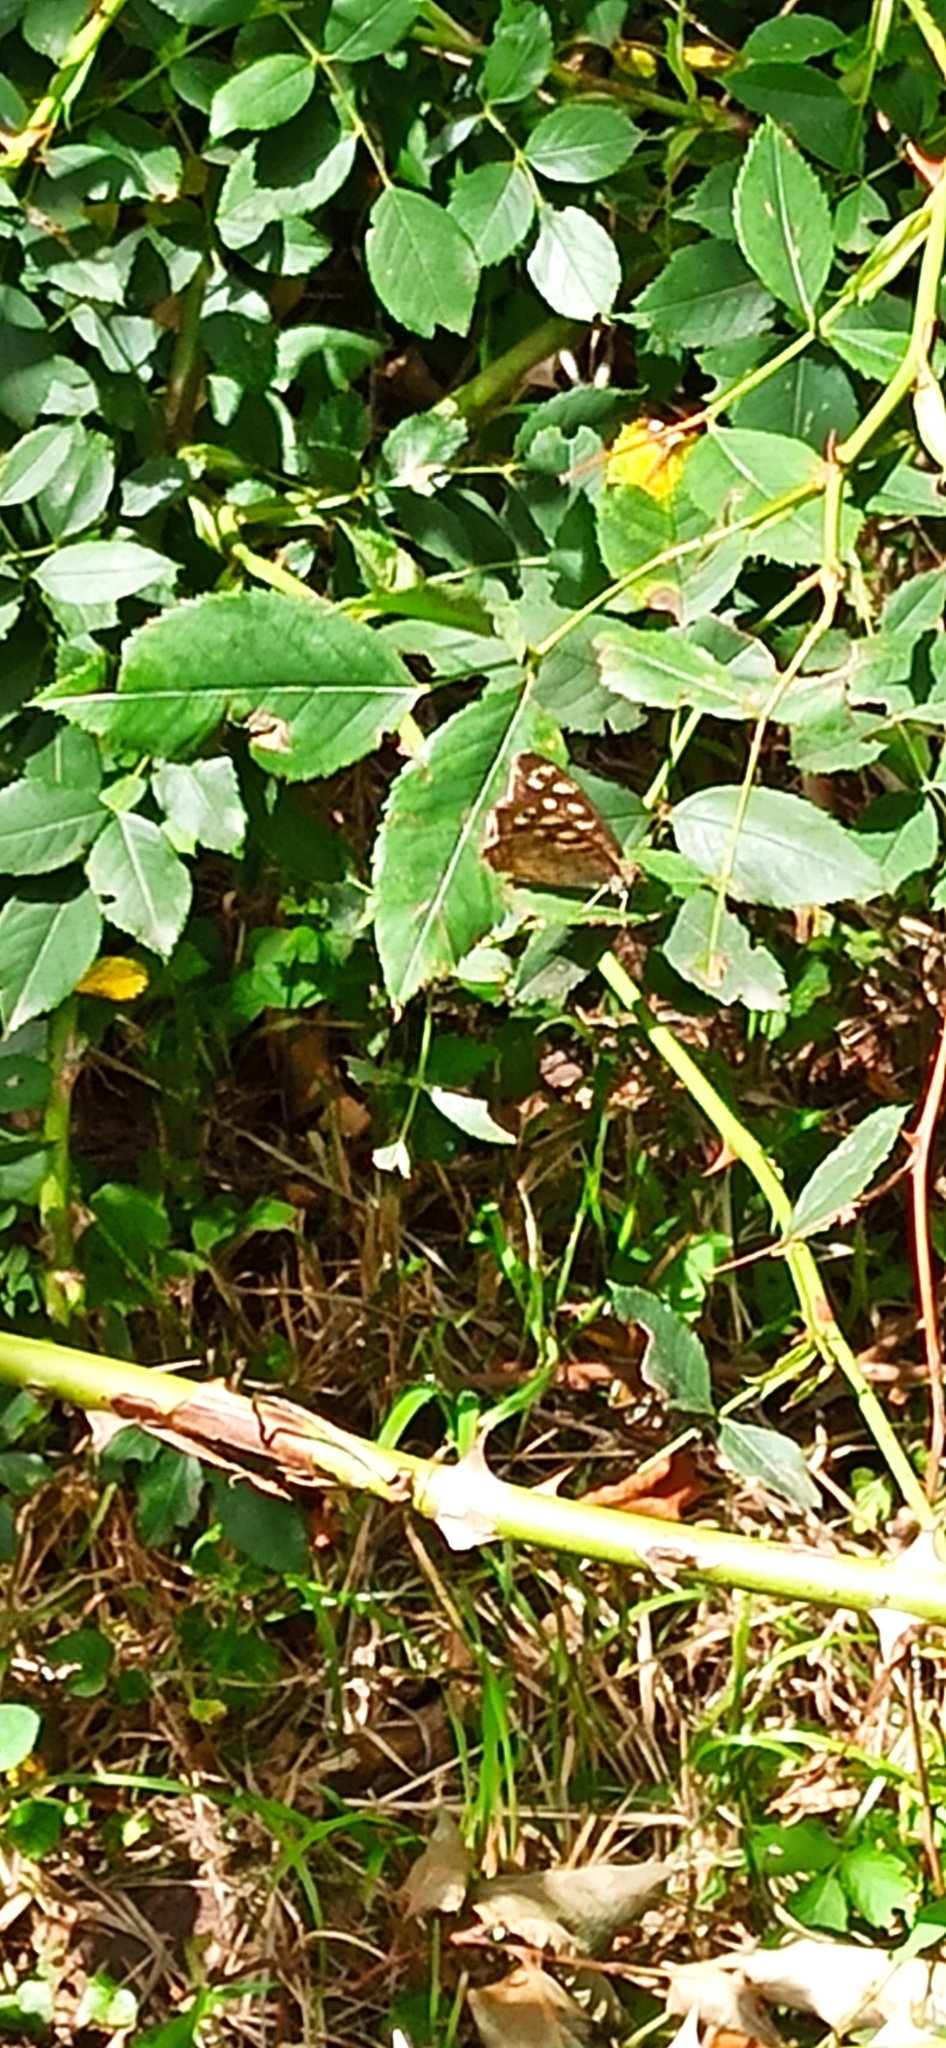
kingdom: Animalia
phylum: Arthropoda
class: Insecta
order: Lepidoptera
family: Nymphalidae
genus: Pararge
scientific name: Pararge aegeria
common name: Speckled wood
